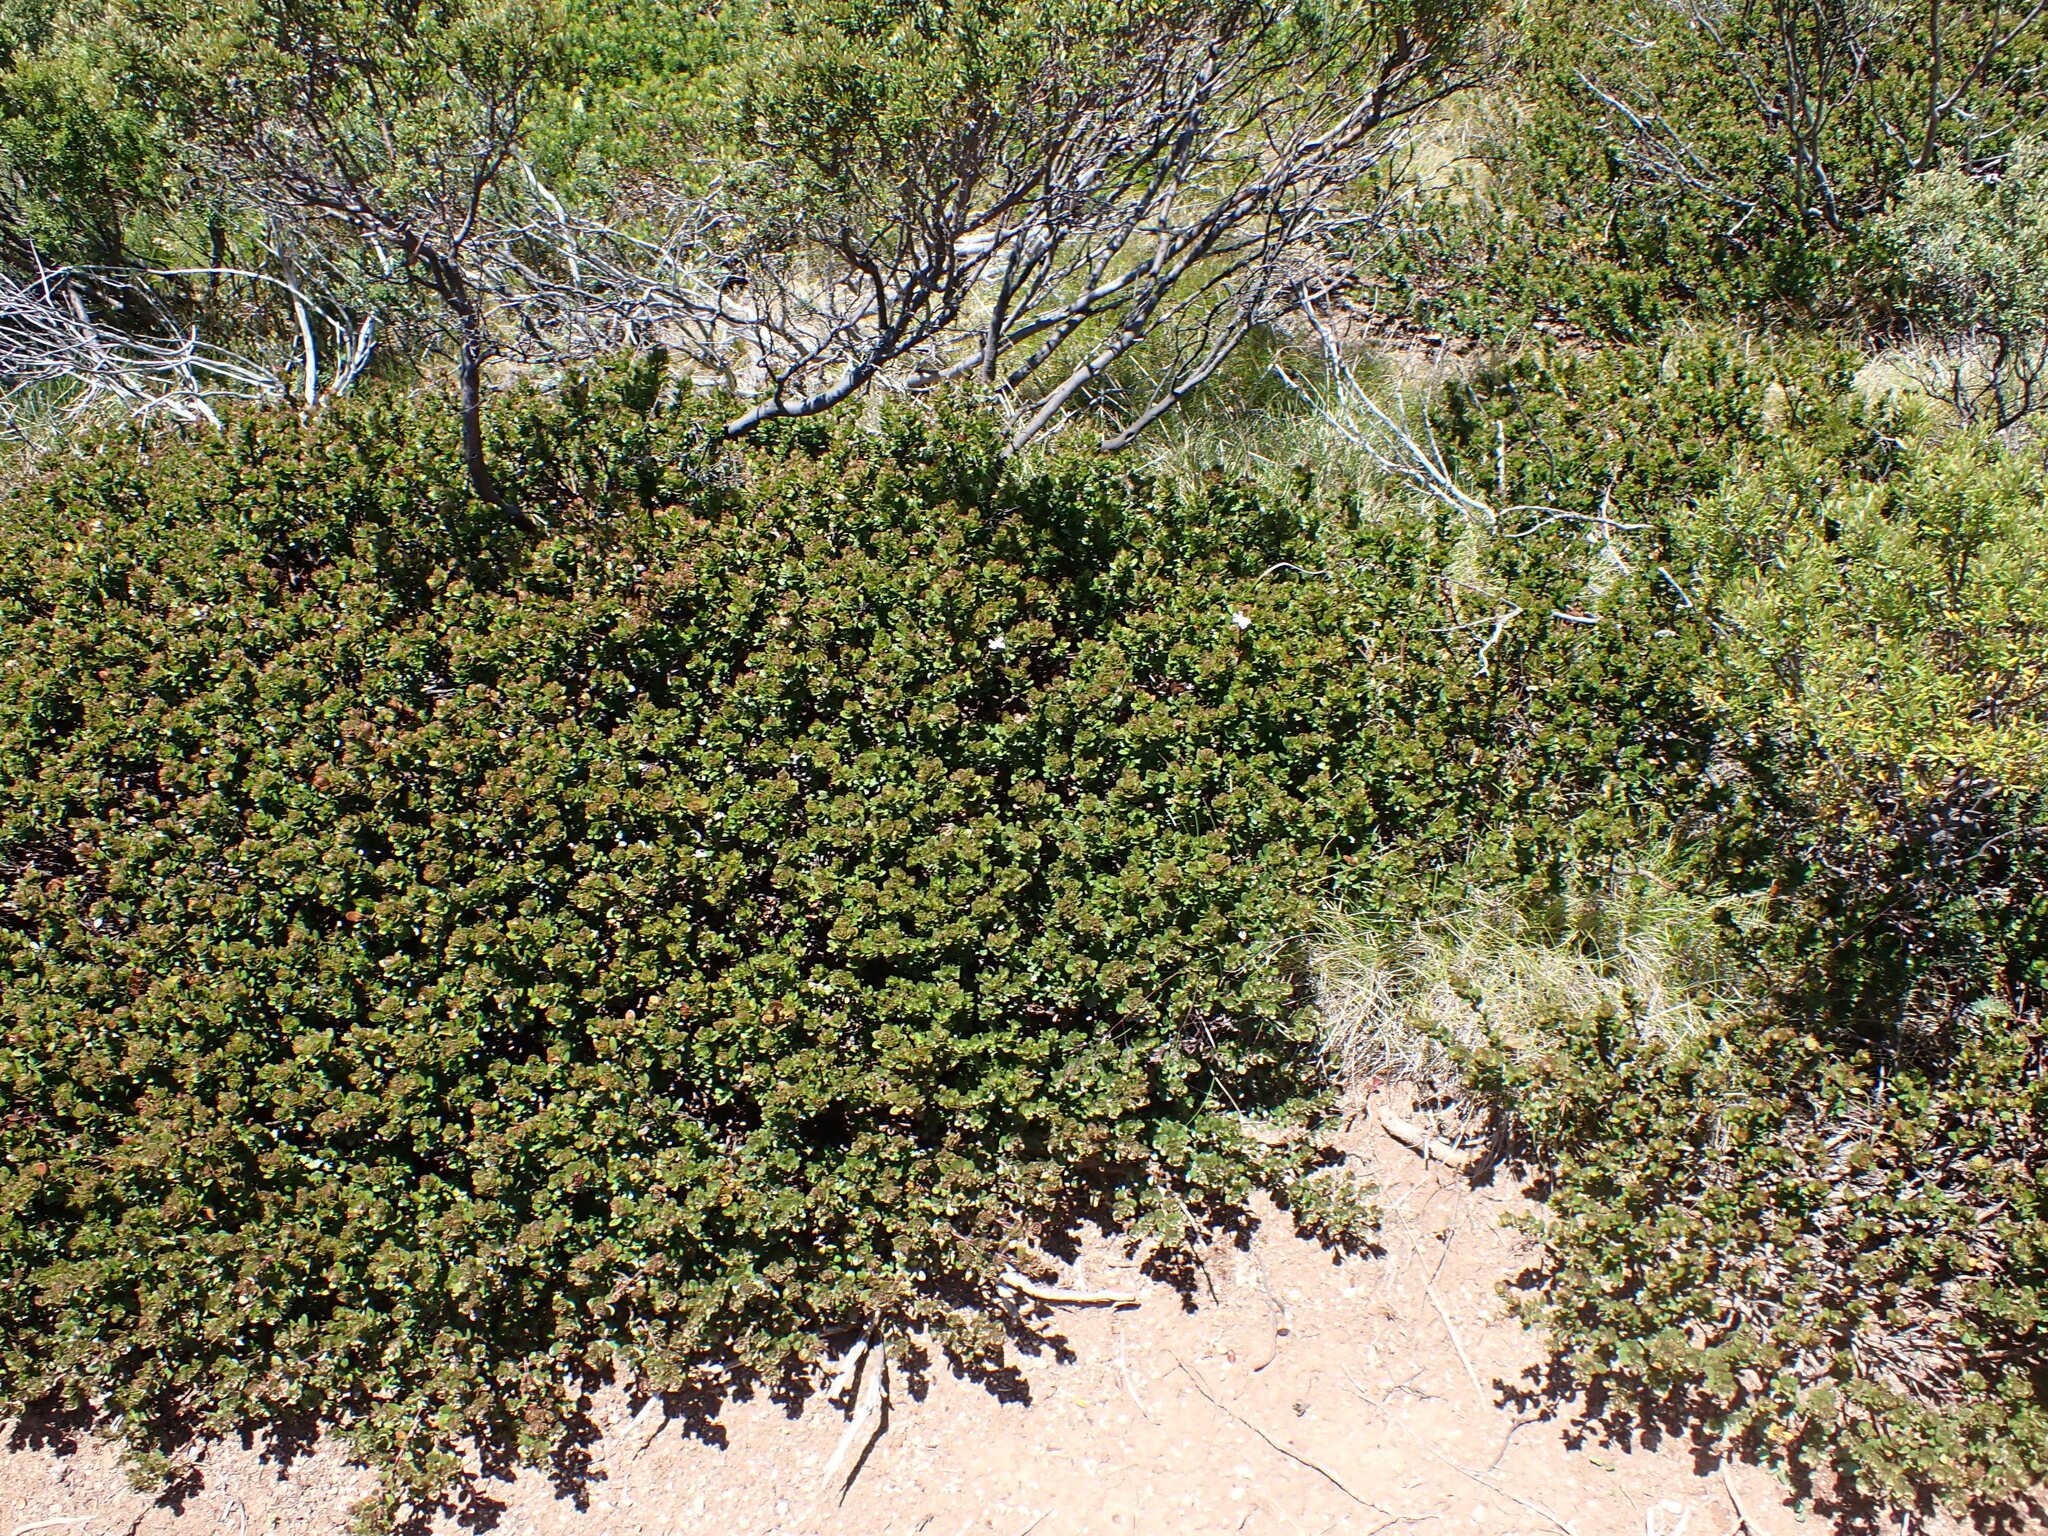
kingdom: Plantae
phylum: Tracheophyta
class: Magnoliopsida
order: Lamiales
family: Lamiaceae
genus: Westringia
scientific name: Westringia lucida
